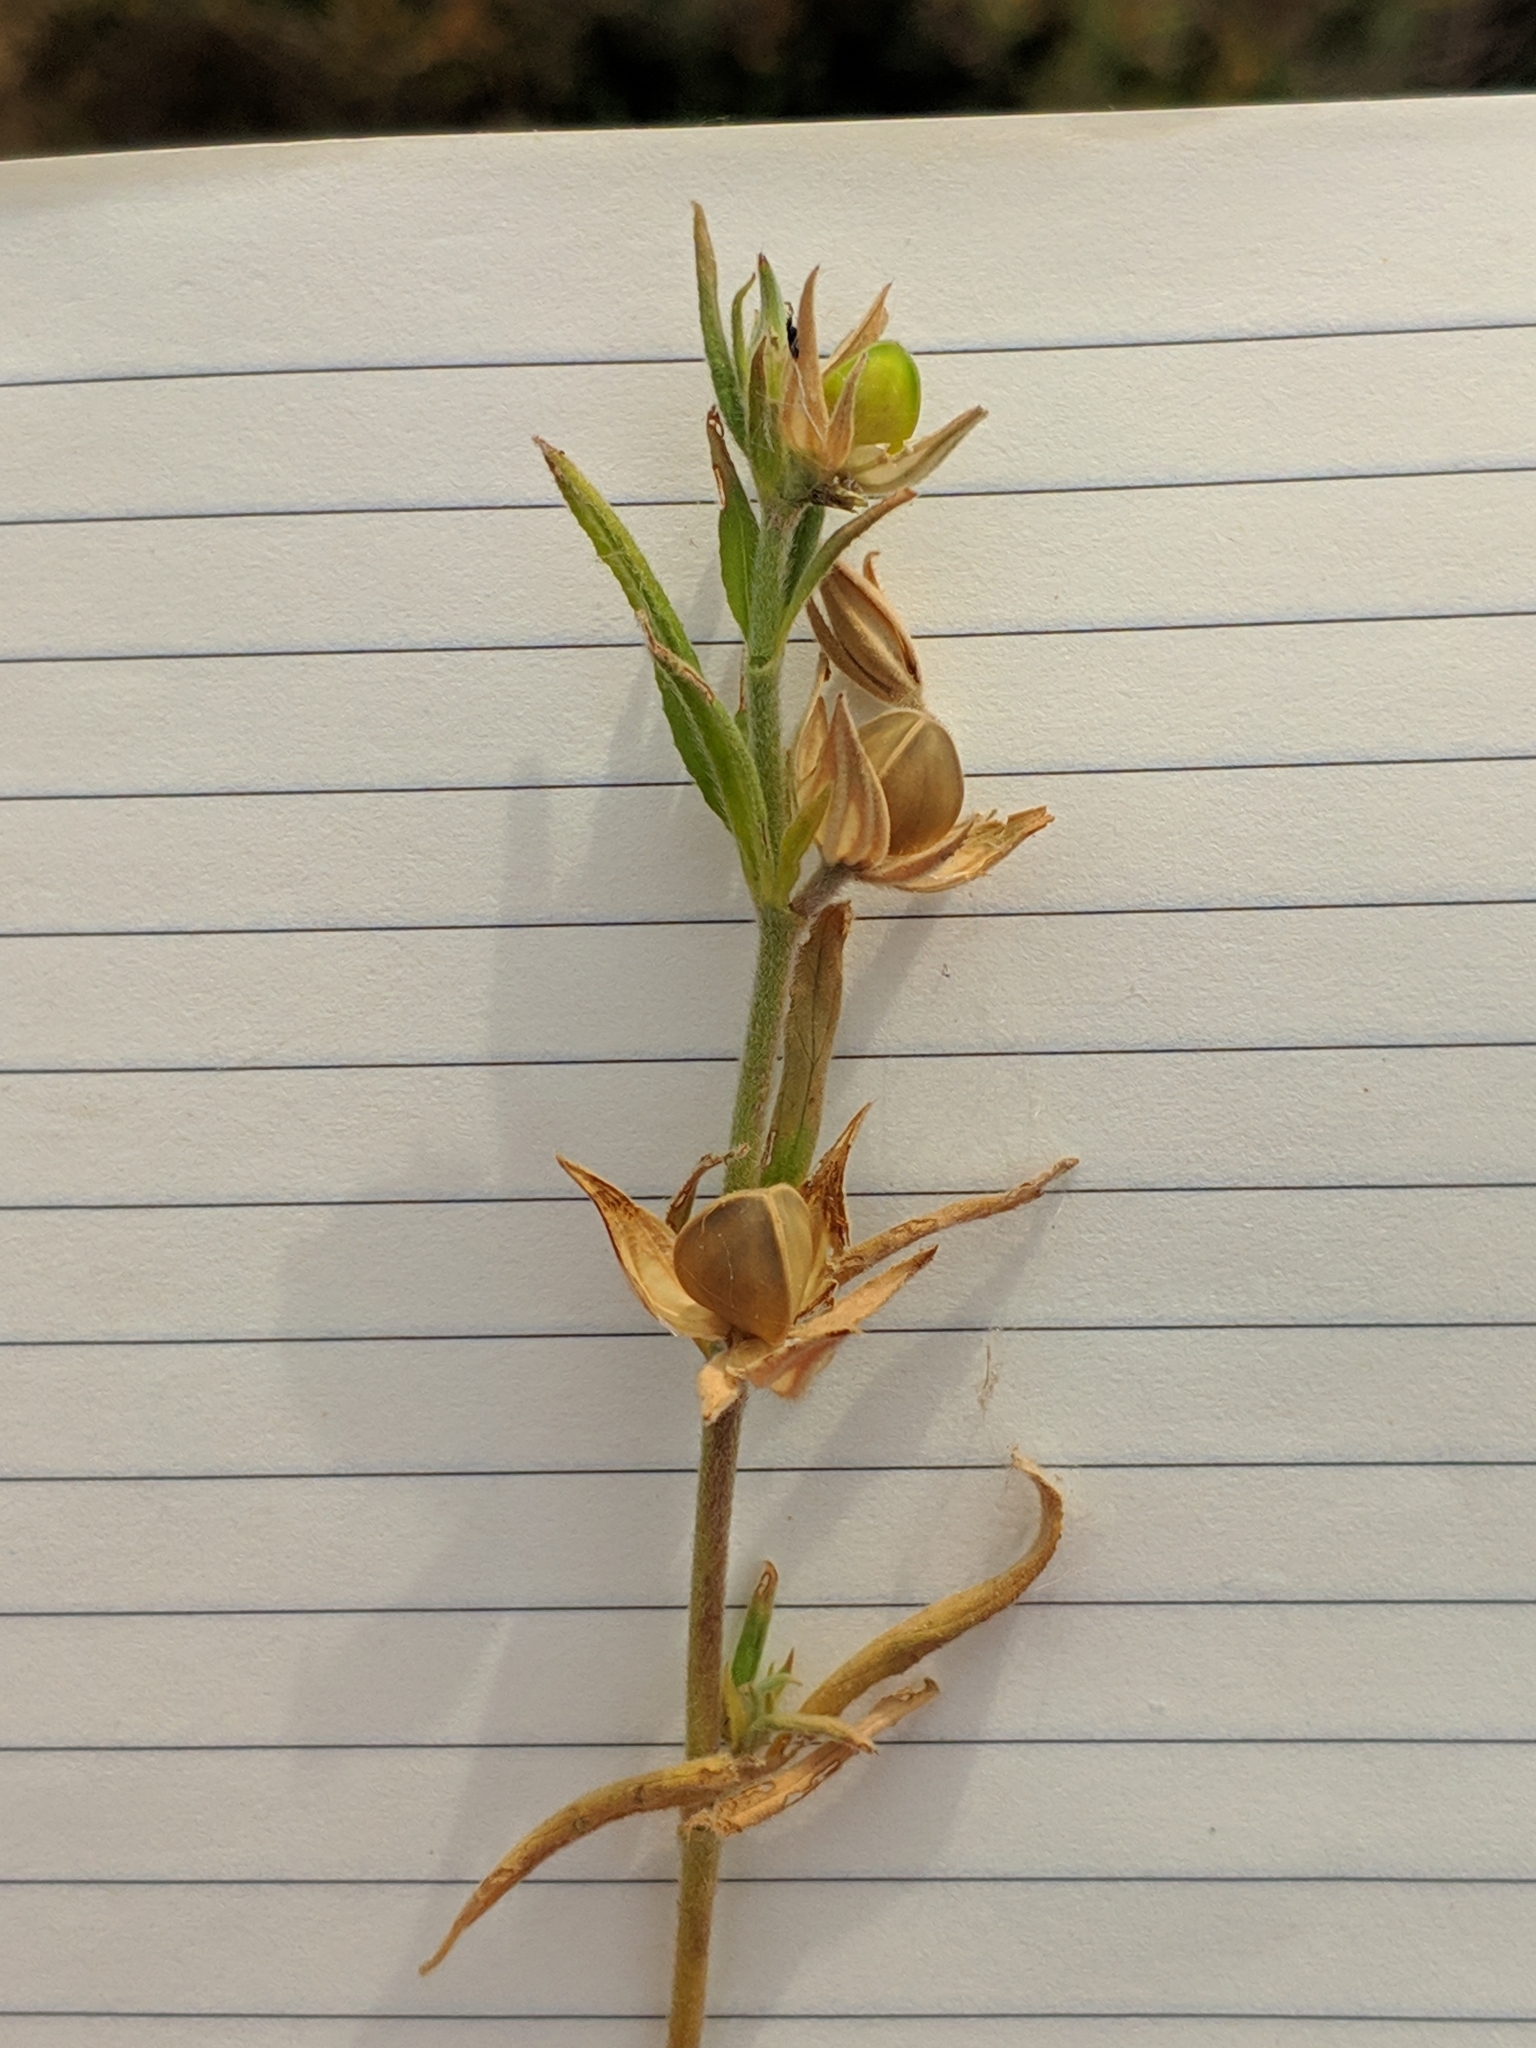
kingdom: Plantae
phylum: Tracheophyta
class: Magnoliopsida
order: Malvales
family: Cistaceae
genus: Helianthemum
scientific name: Helianthemum ledifolium
